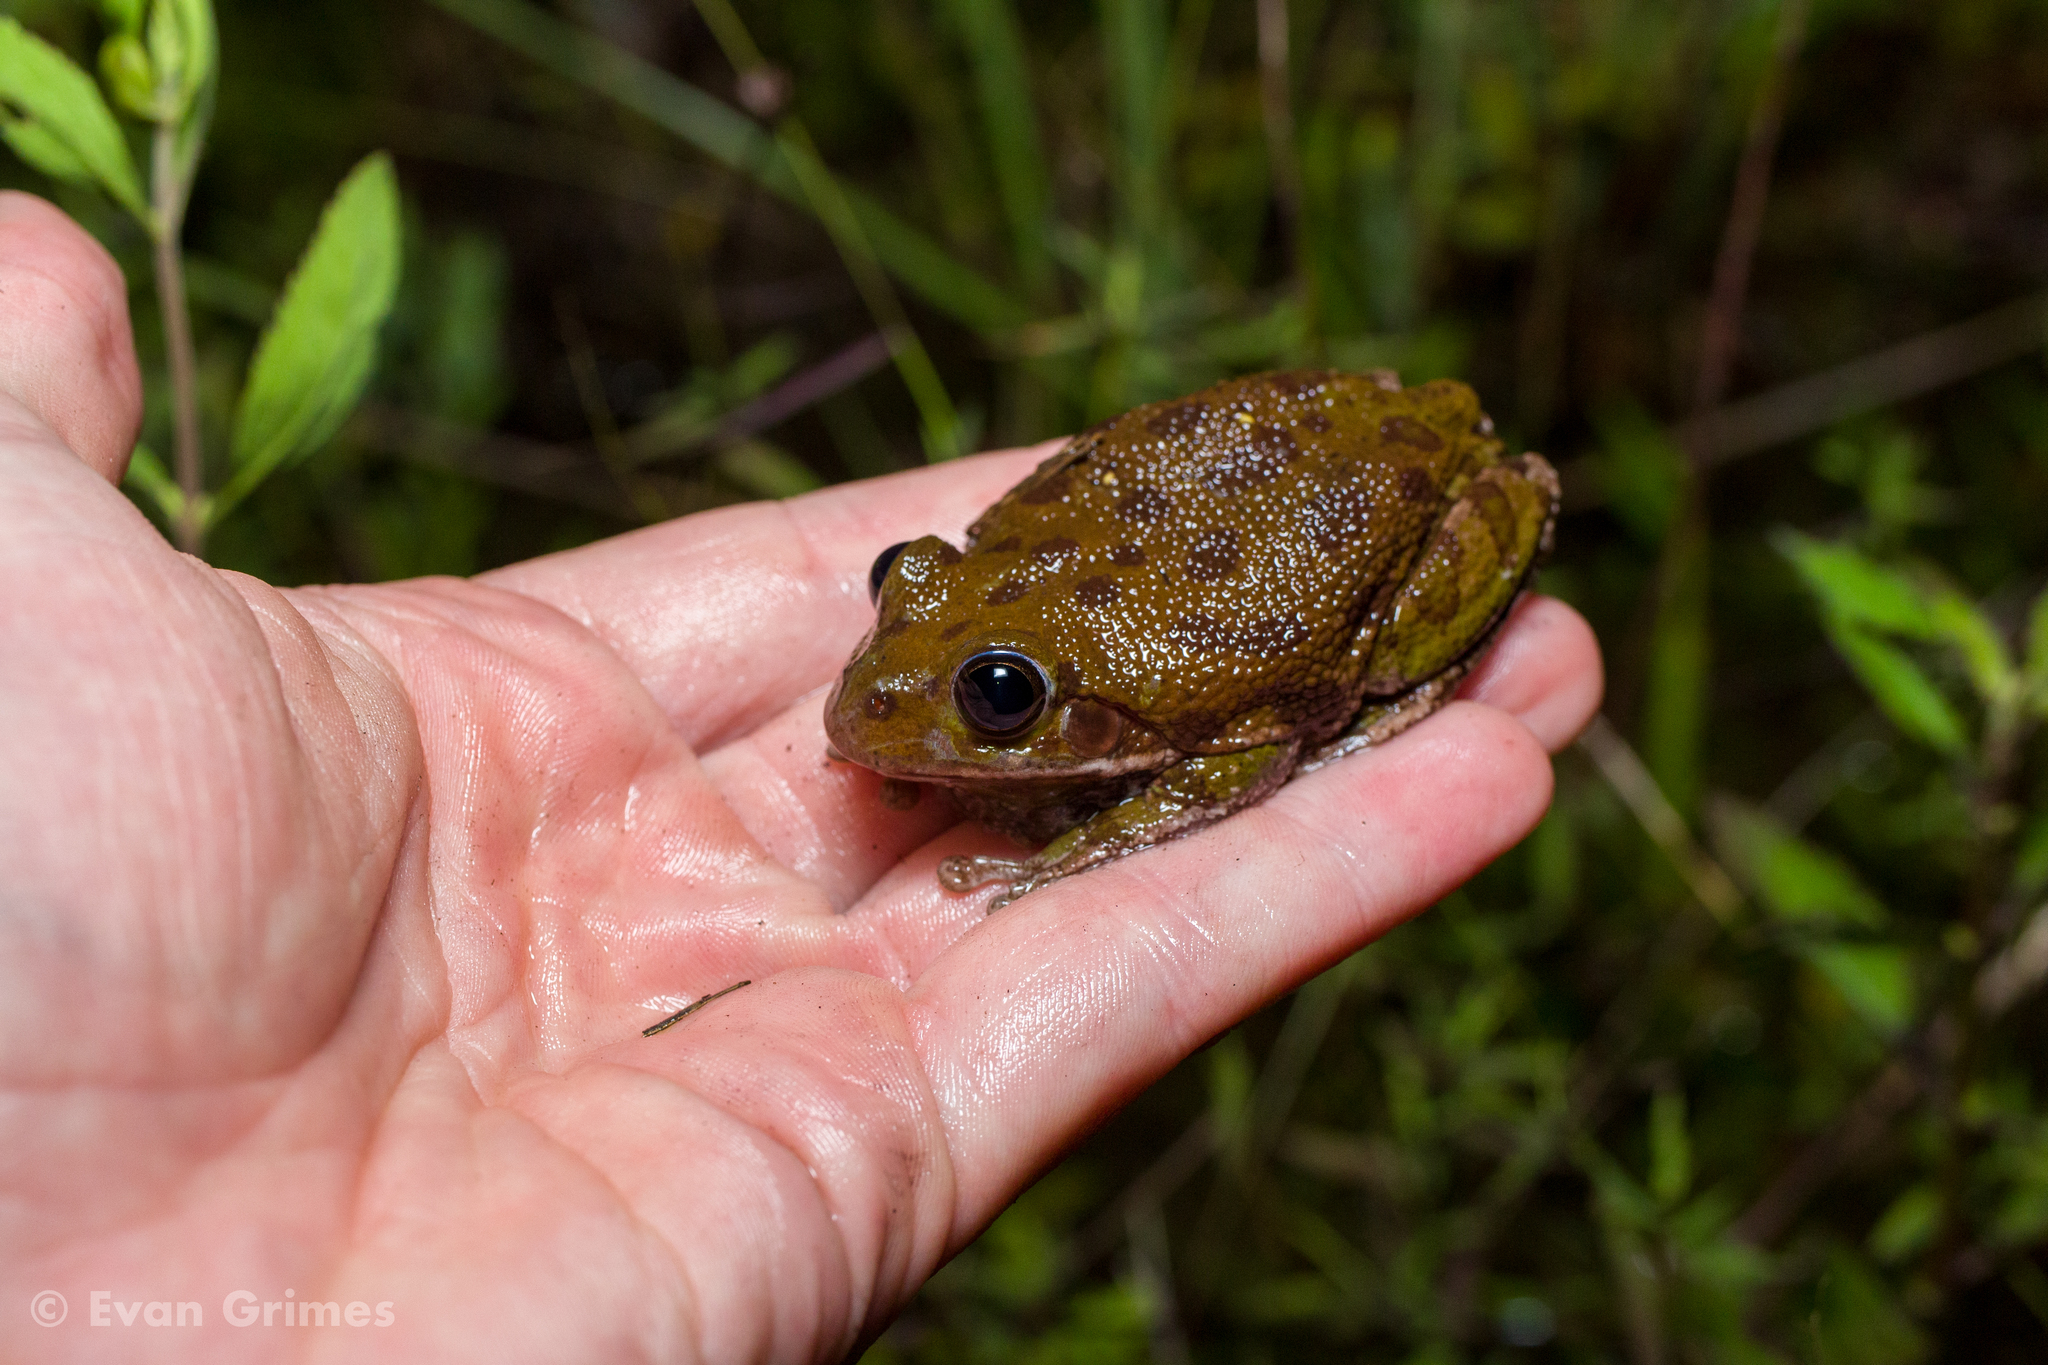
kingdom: Animalia
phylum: Chordata
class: Amphibia
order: Anura
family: Hylidae
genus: Dryophytes
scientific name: Dryophytes gratiosus
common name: Barking treefrog
